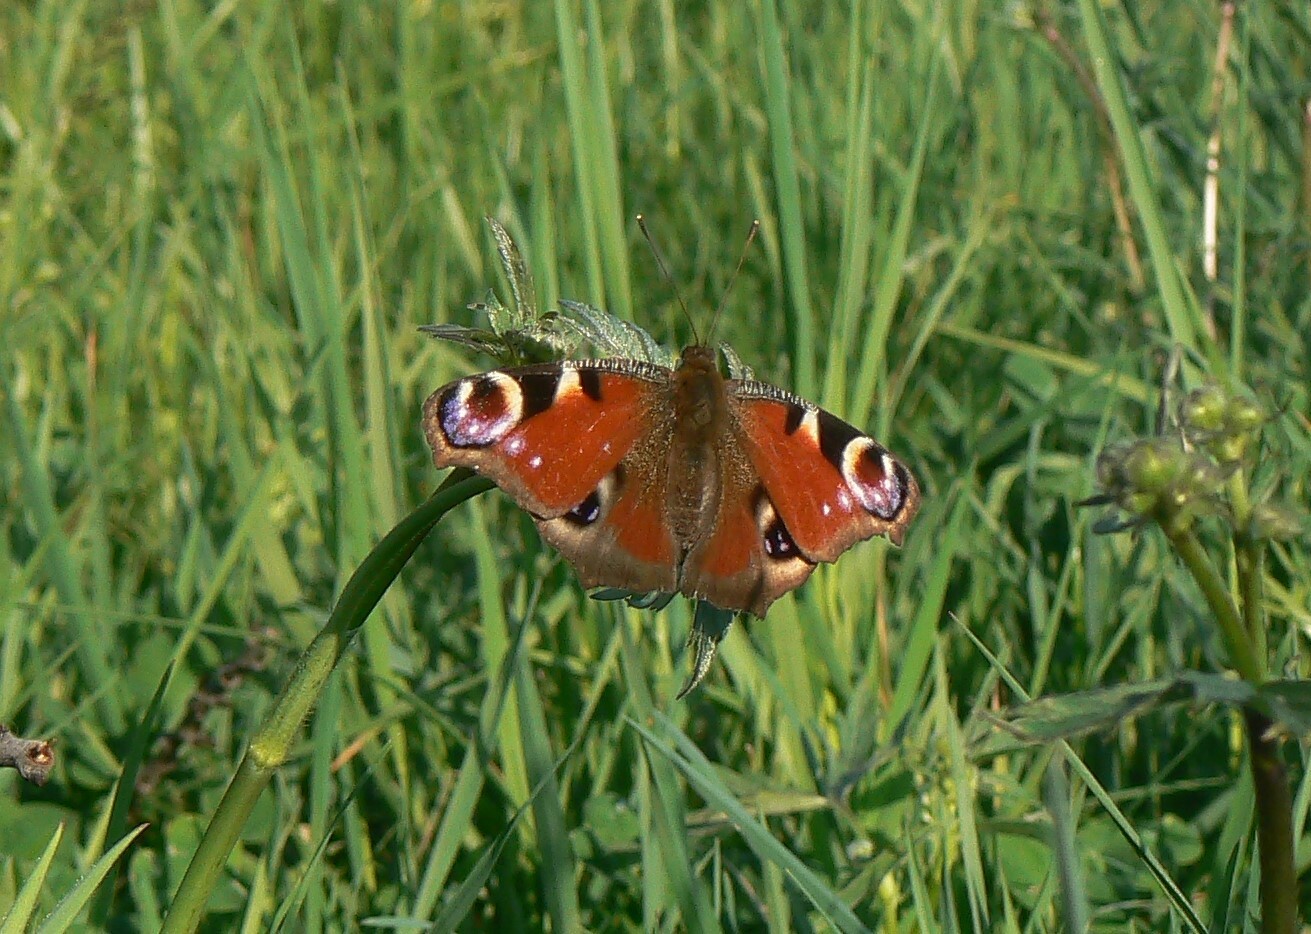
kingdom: Animalia
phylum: Arthropoda
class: Insecta
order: Lepidoptera
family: Nymphalidae
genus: Aglais
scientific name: Aglais io
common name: Peacock
